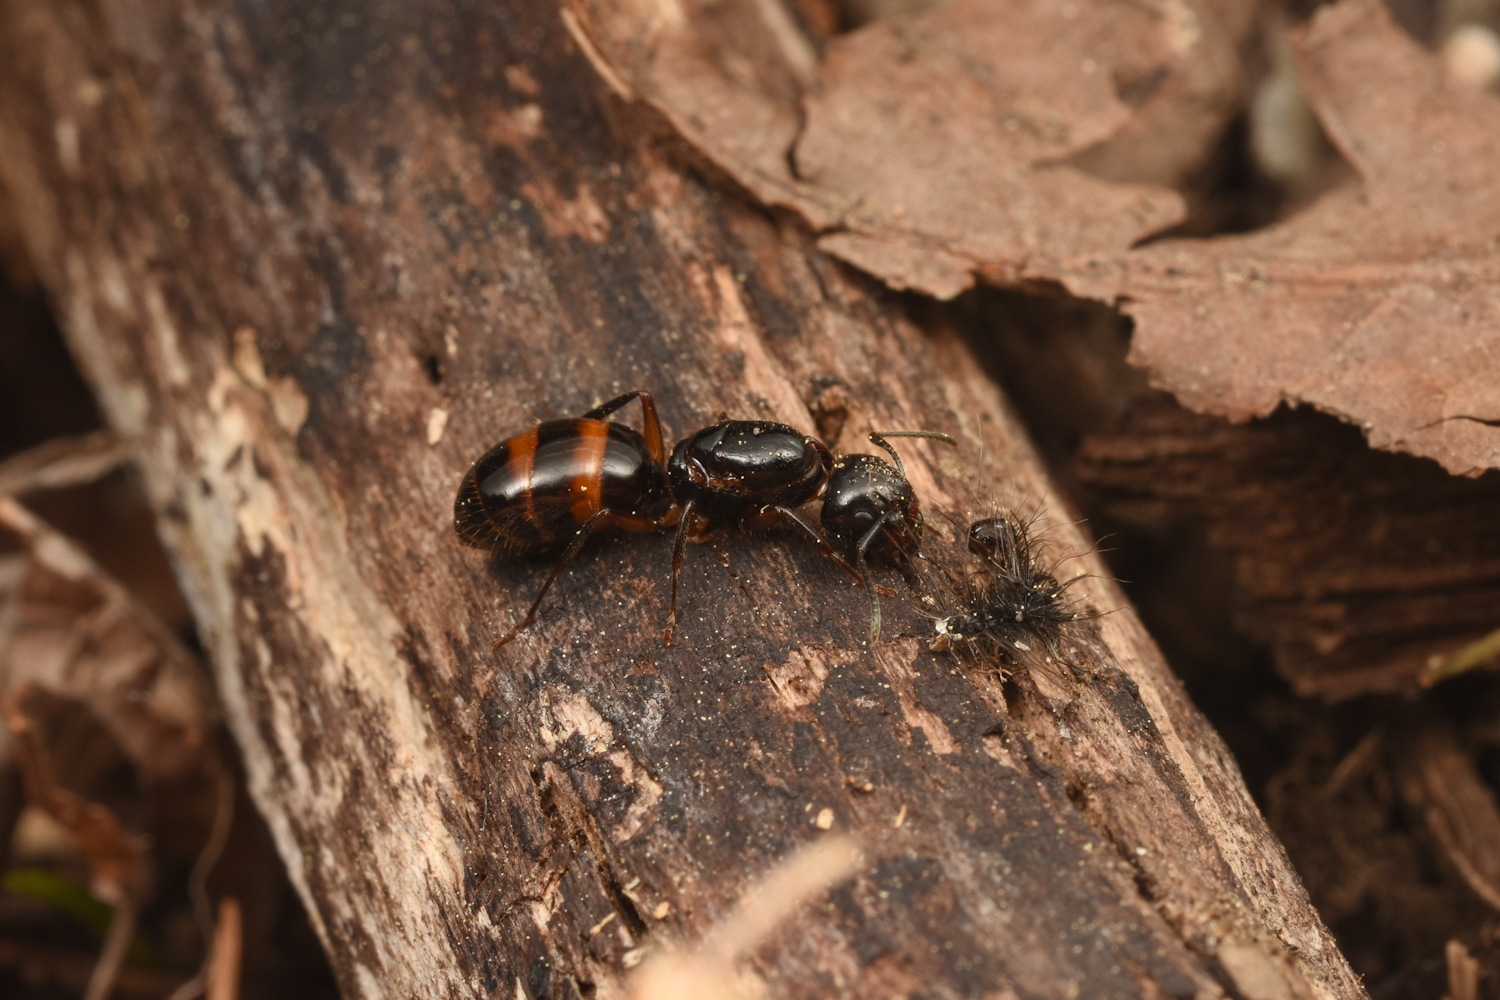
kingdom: Animalia
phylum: Arthropoda
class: Insecta
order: Hymenoptera
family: Formicidae
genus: Camponotus
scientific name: Camponotus nipponensis
